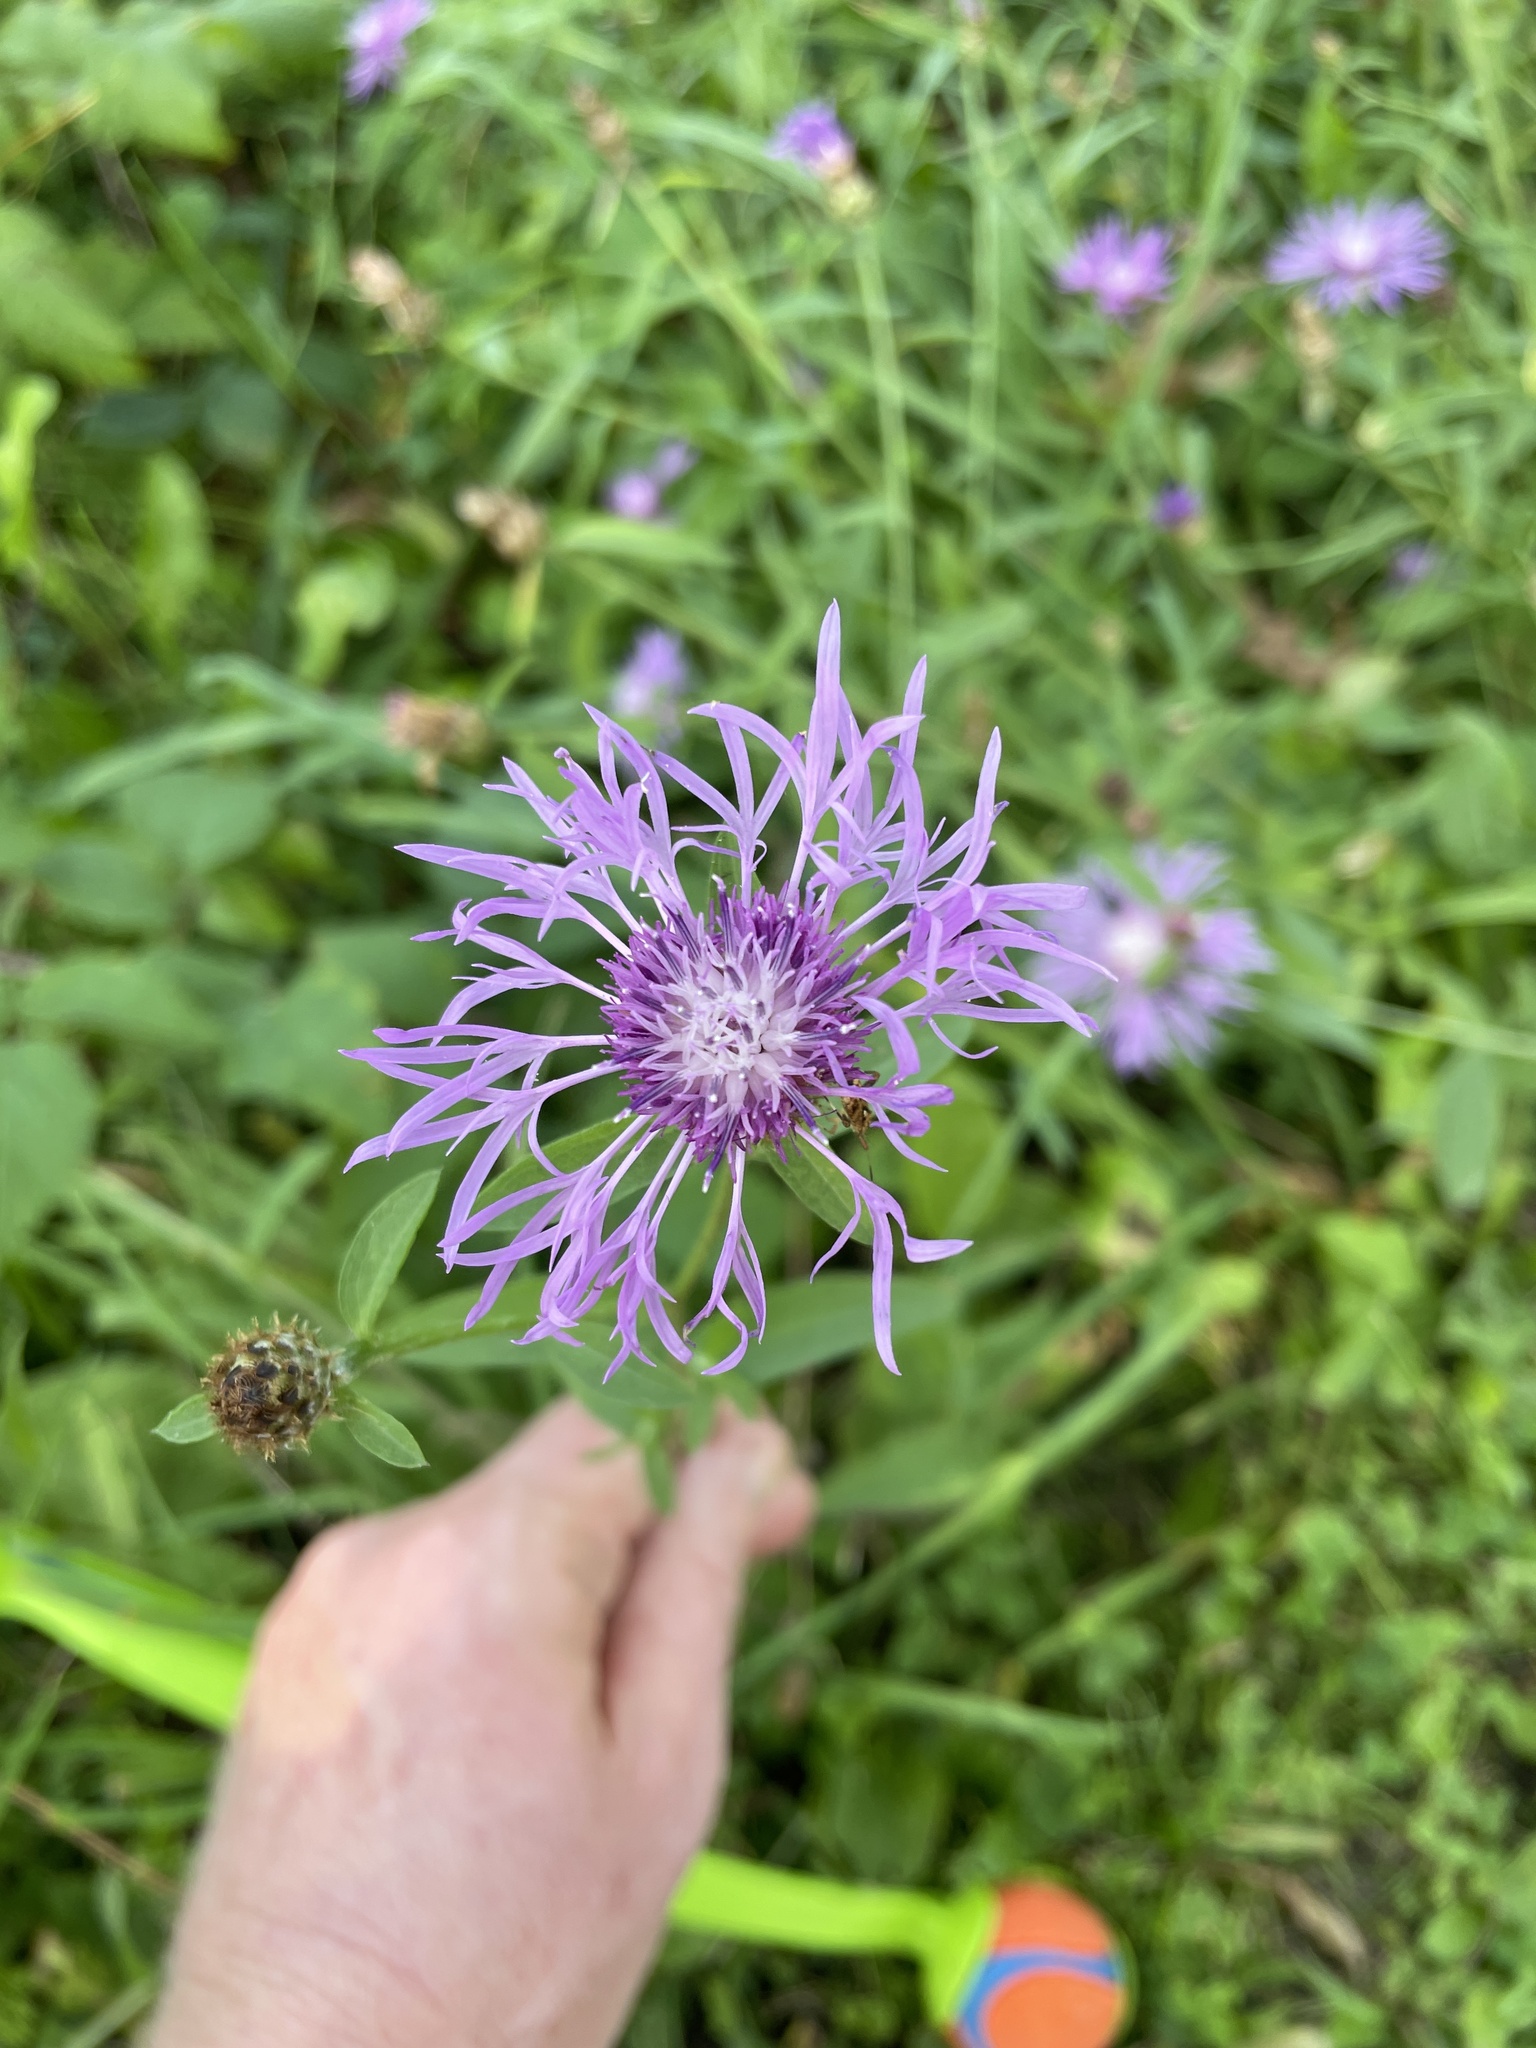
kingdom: Plantae
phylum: Tracheophyta
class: Magnoliopsida
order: Asterales
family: Asteraceae
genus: Centaurea
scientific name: Centaurea jacea
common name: Brown knapweed
